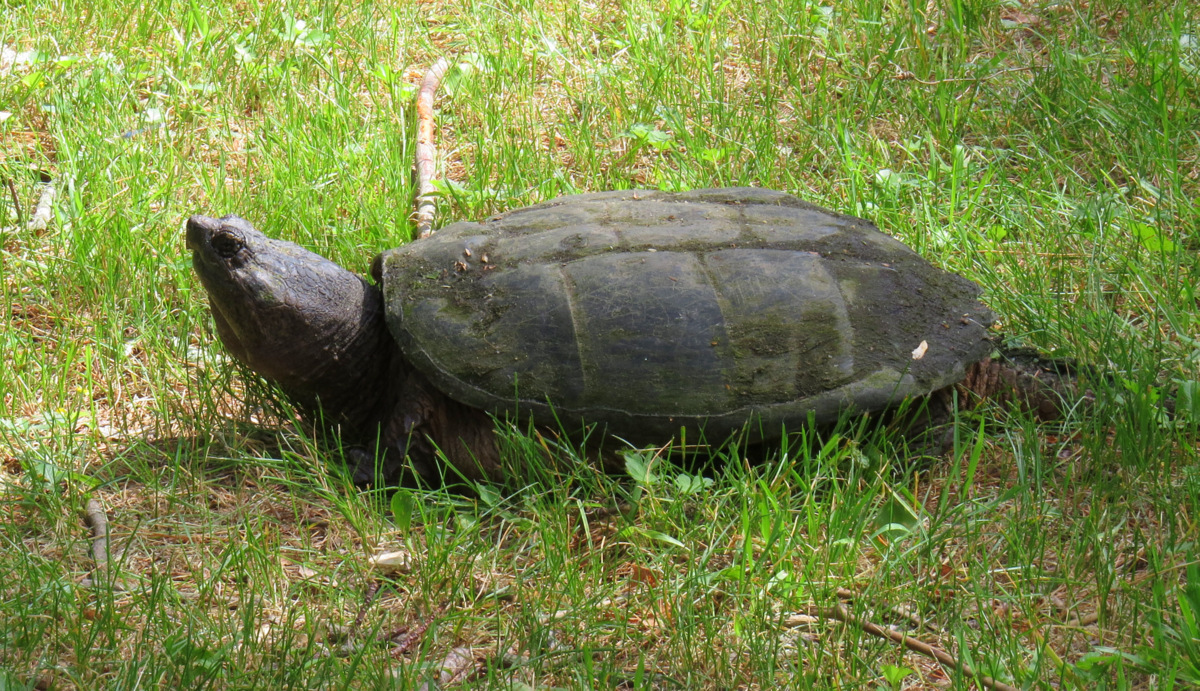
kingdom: Animalia
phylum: Chordata
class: Testudines
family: Chelydridae
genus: Chelydra
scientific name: Chelydra serpentina
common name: Common snapping turtle
